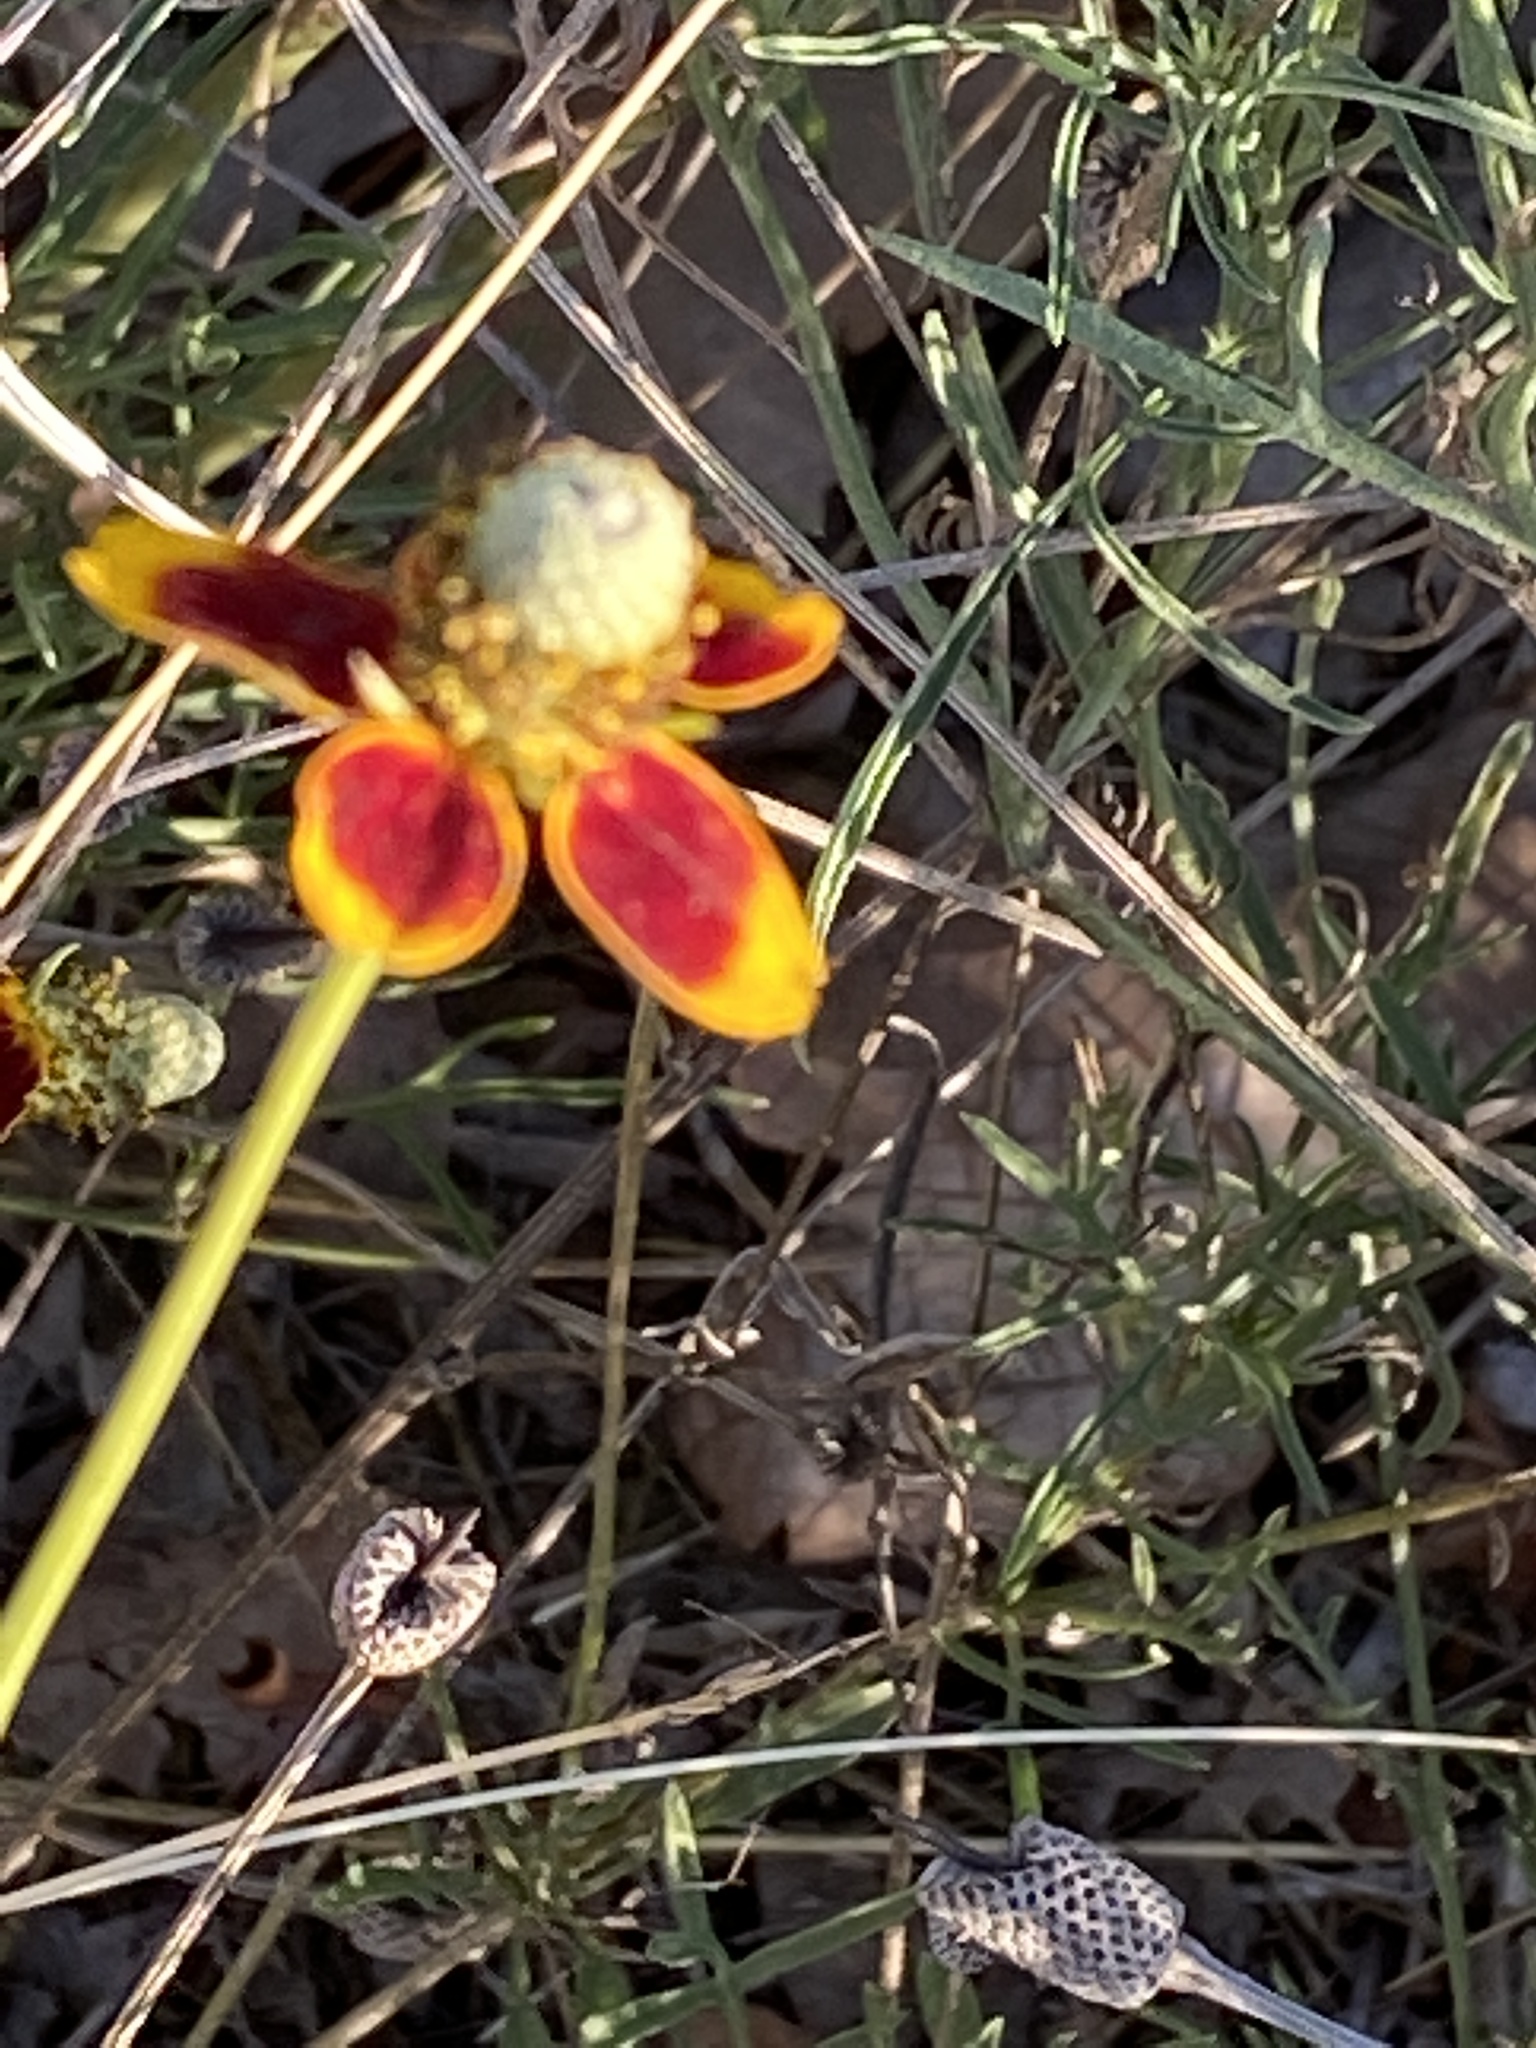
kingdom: Plantae
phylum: Tracheophyta
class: Magnoliopsida
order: Asterales
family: Asteraceae
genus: Ratibida
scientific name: Ratibida columnifera
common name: Prairie coneflower
